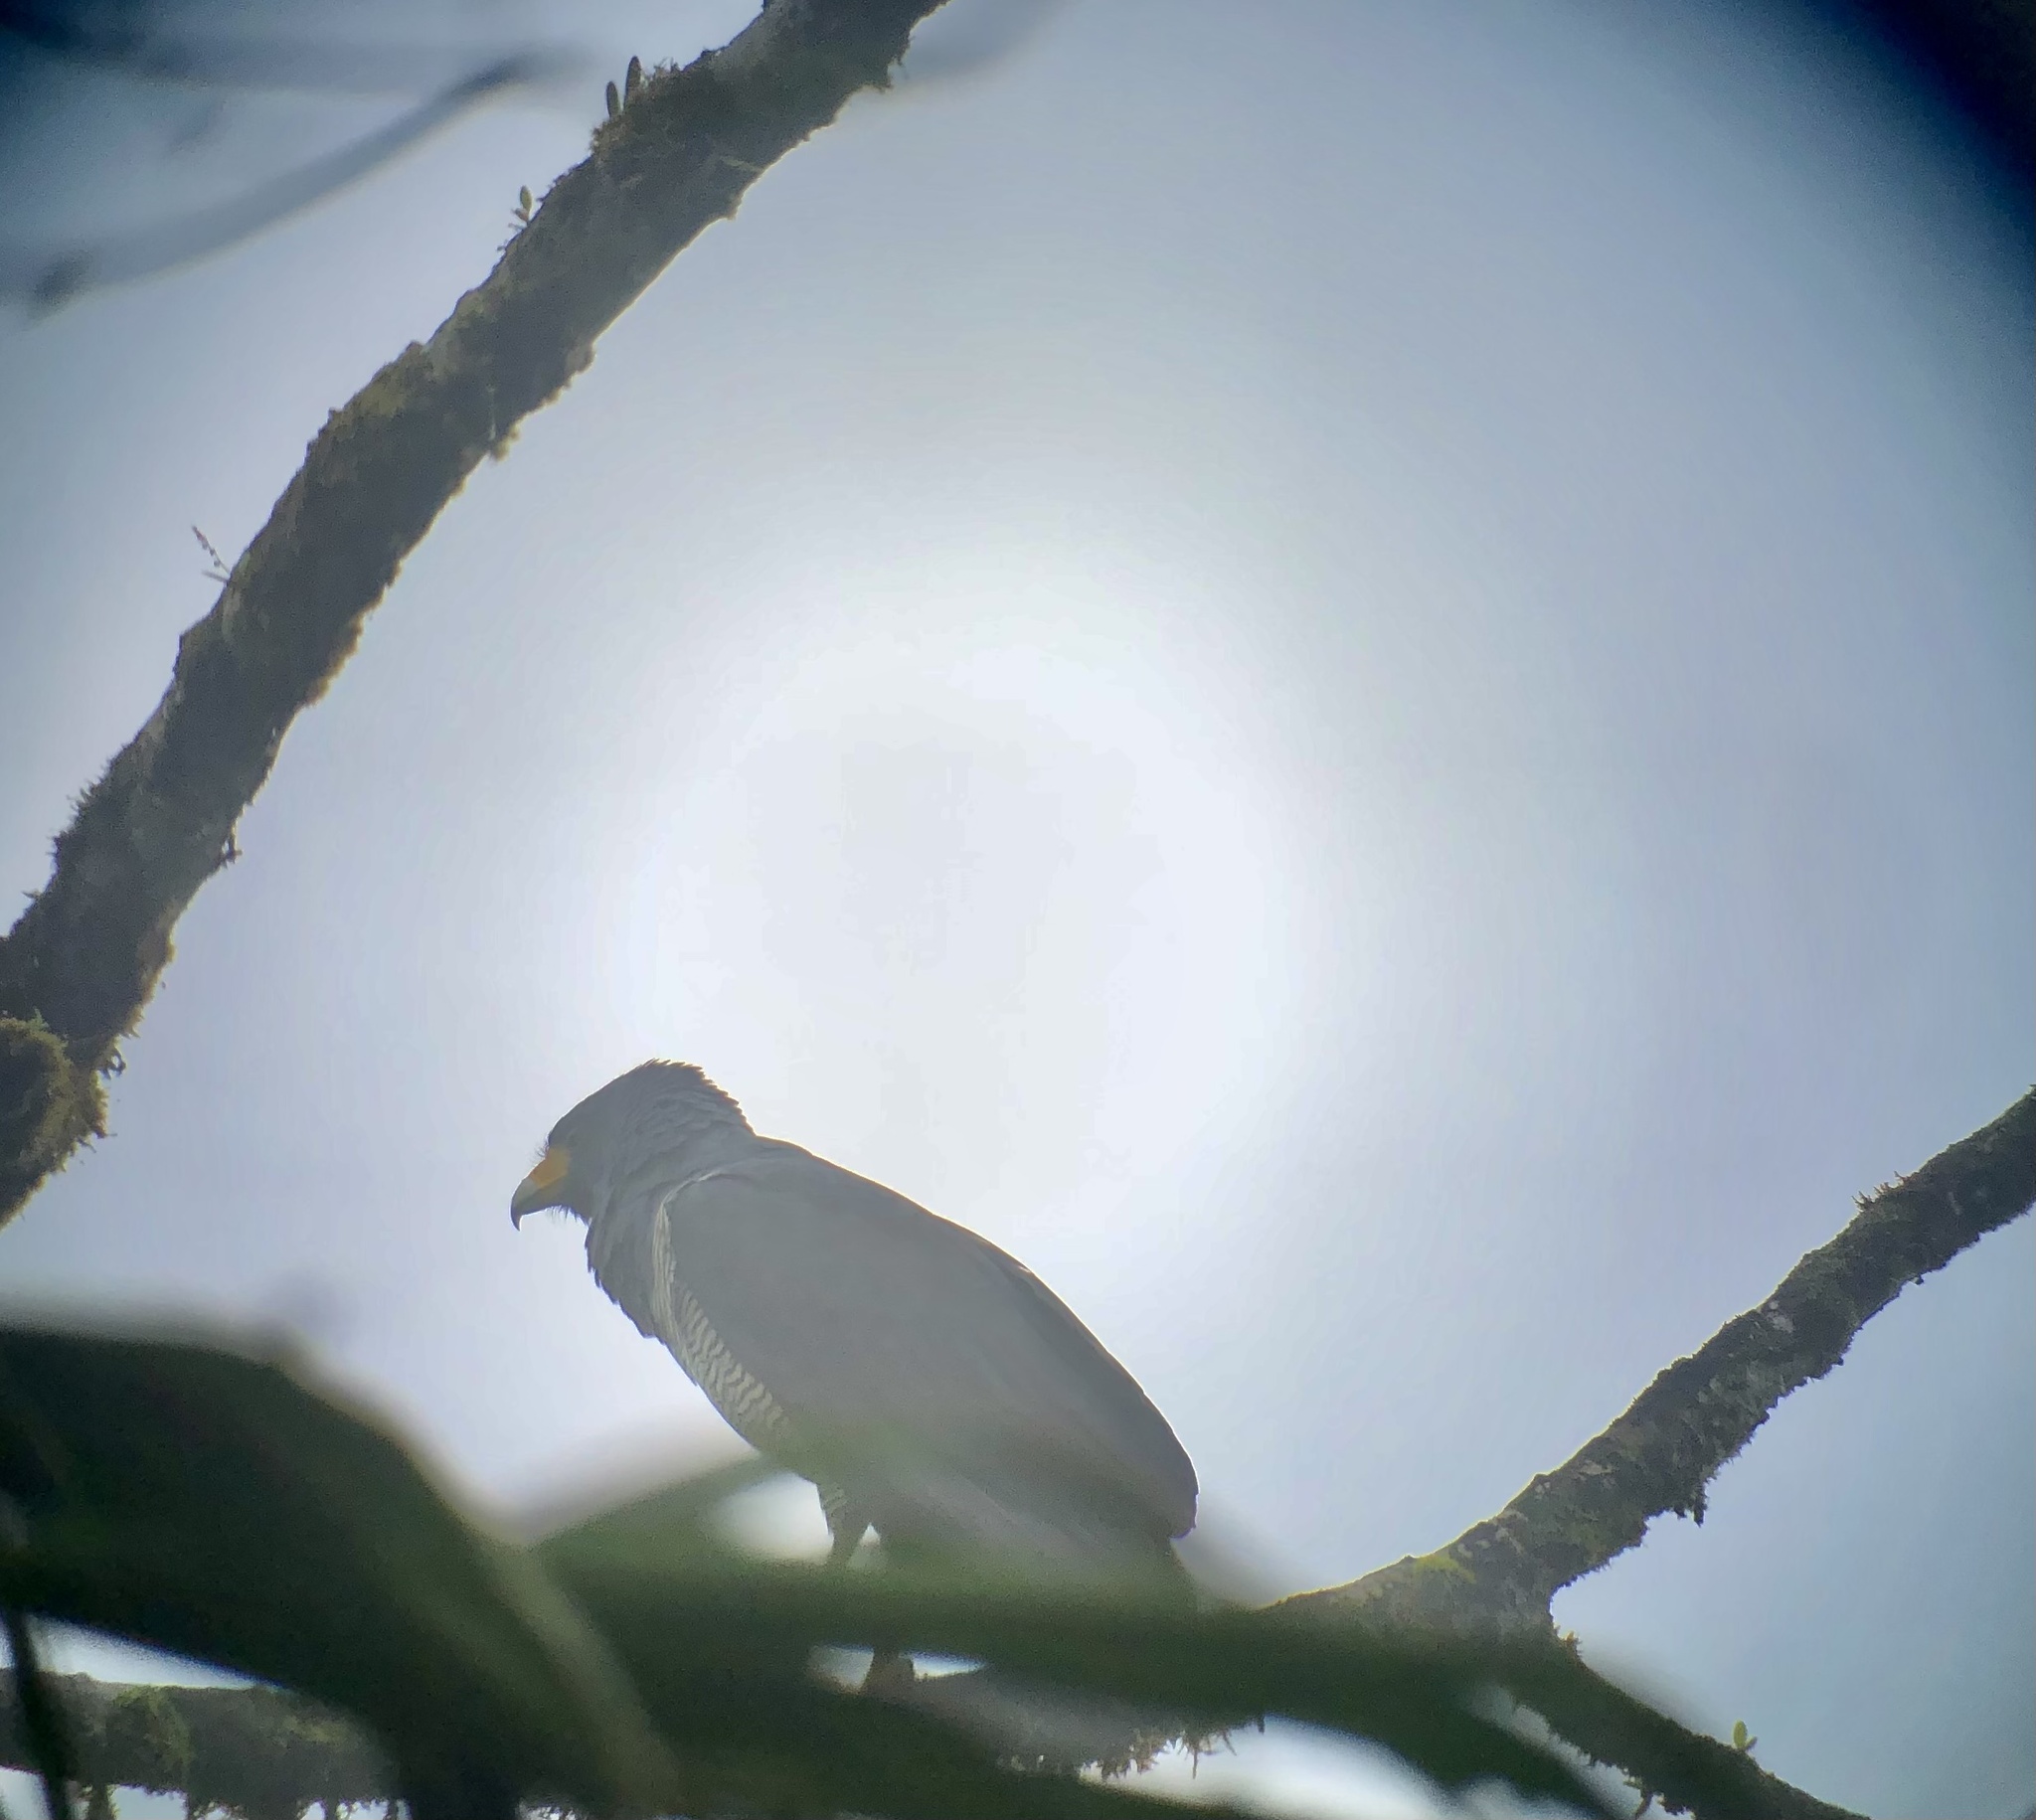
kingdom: Animalia
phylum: Chordata
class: Aves
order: Accipitriformes
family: Accipitridae
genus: Leucopternis
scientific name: Leucopternis princeps
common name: Barred hawk
